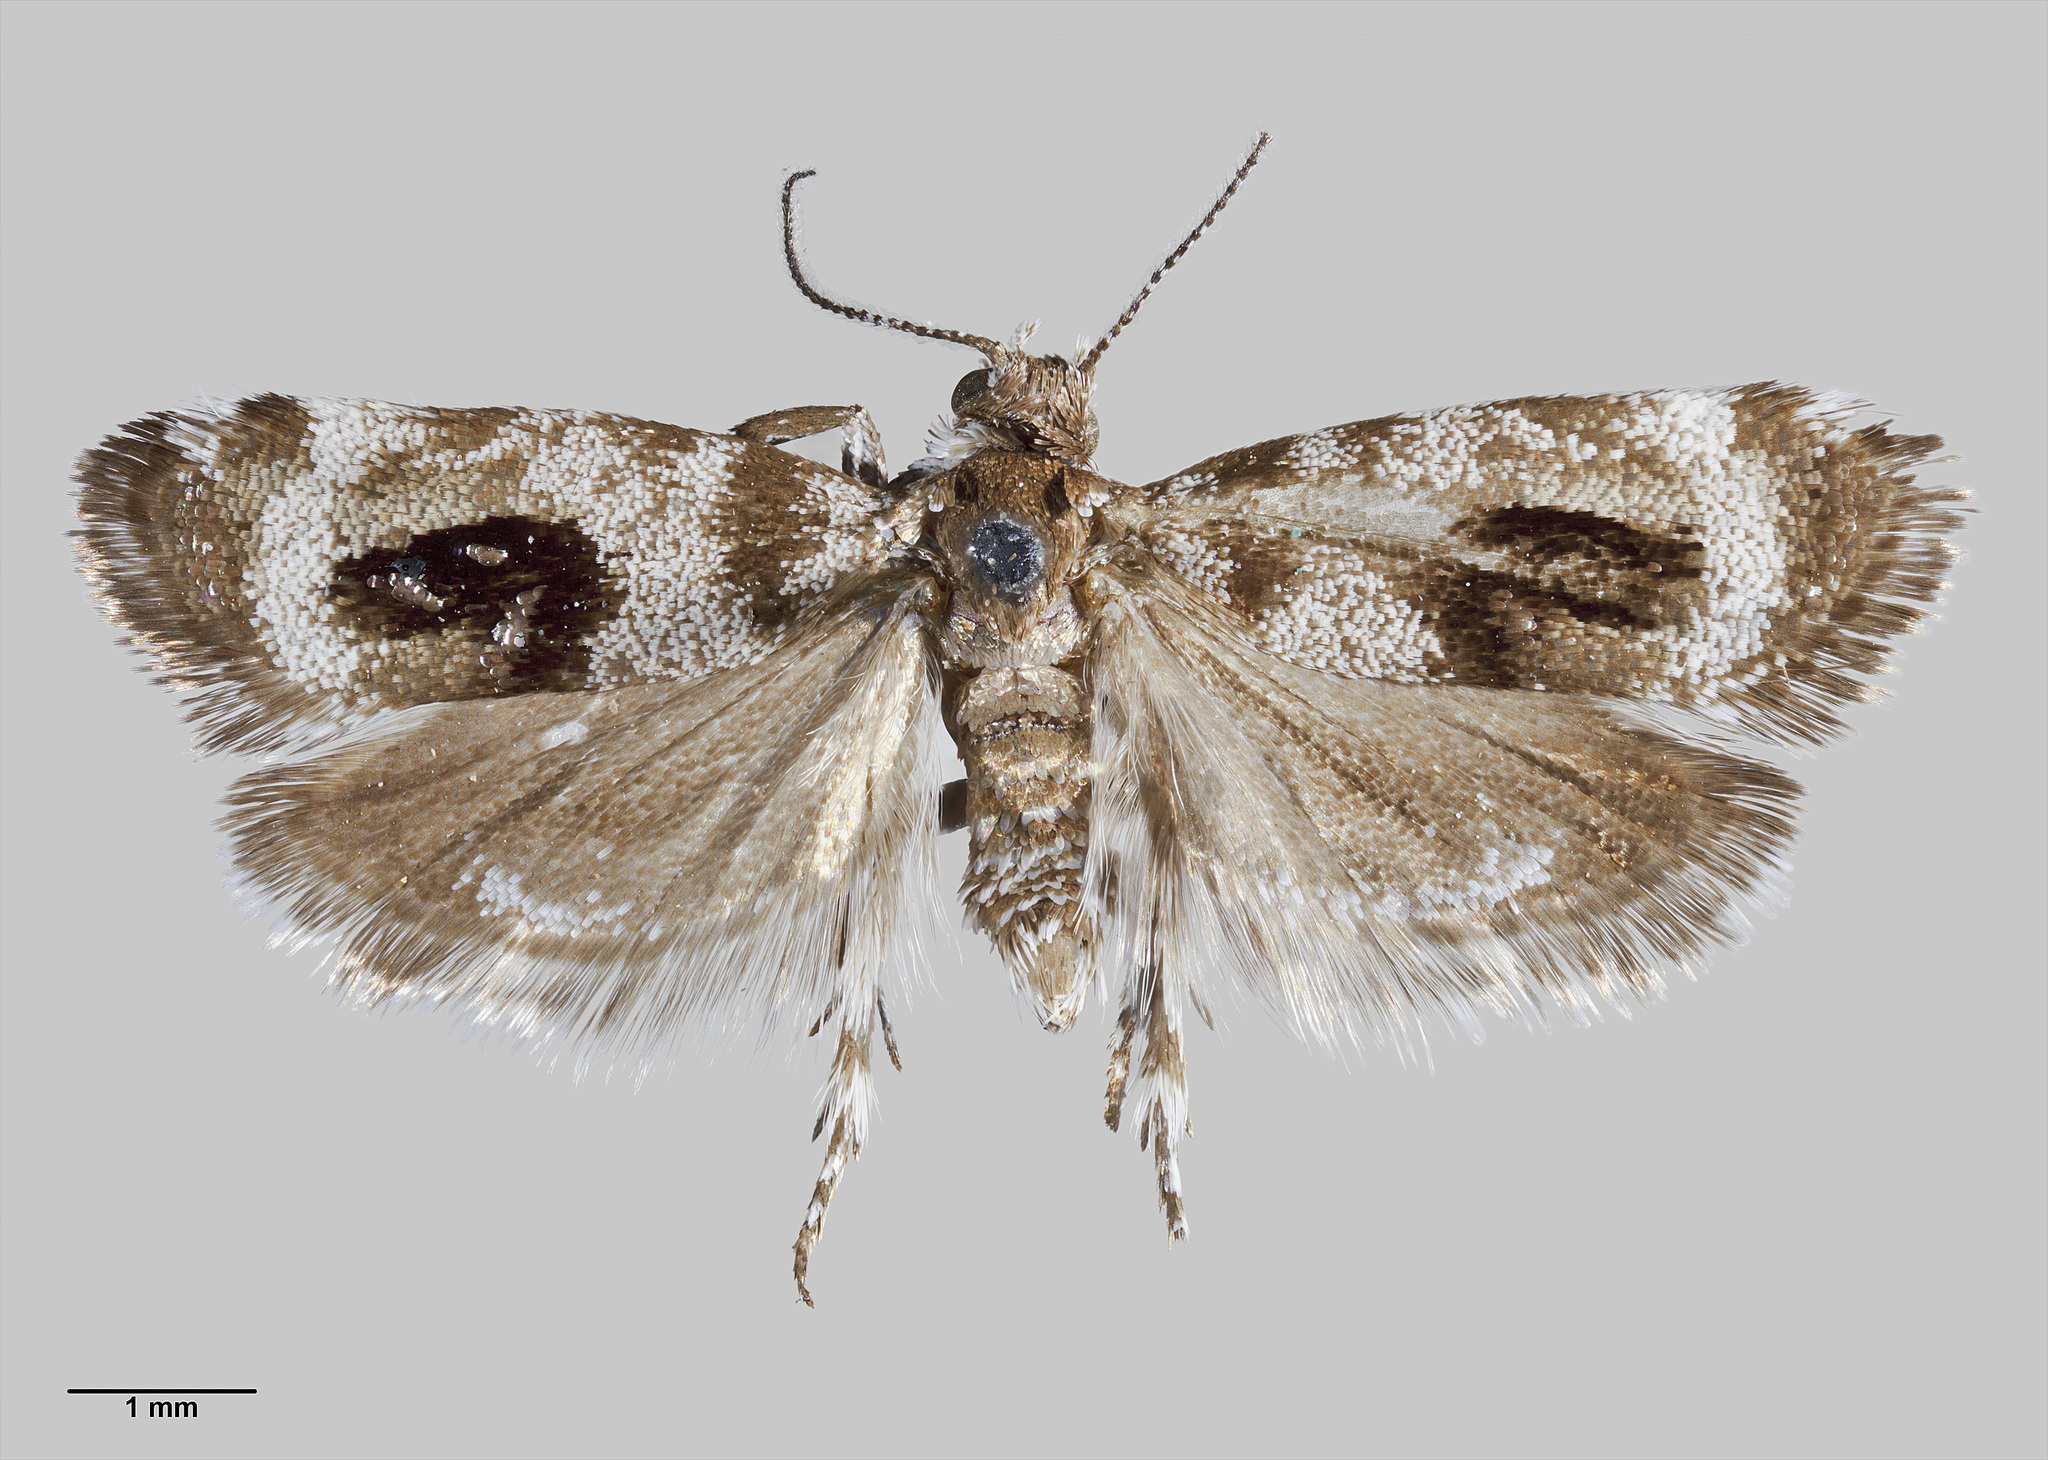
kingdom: Animalia
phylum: Arthropoda
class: Insecta
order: Lepidoptera
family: Choreutidae
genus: Asterivora
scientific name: Asterivora inspoliata
